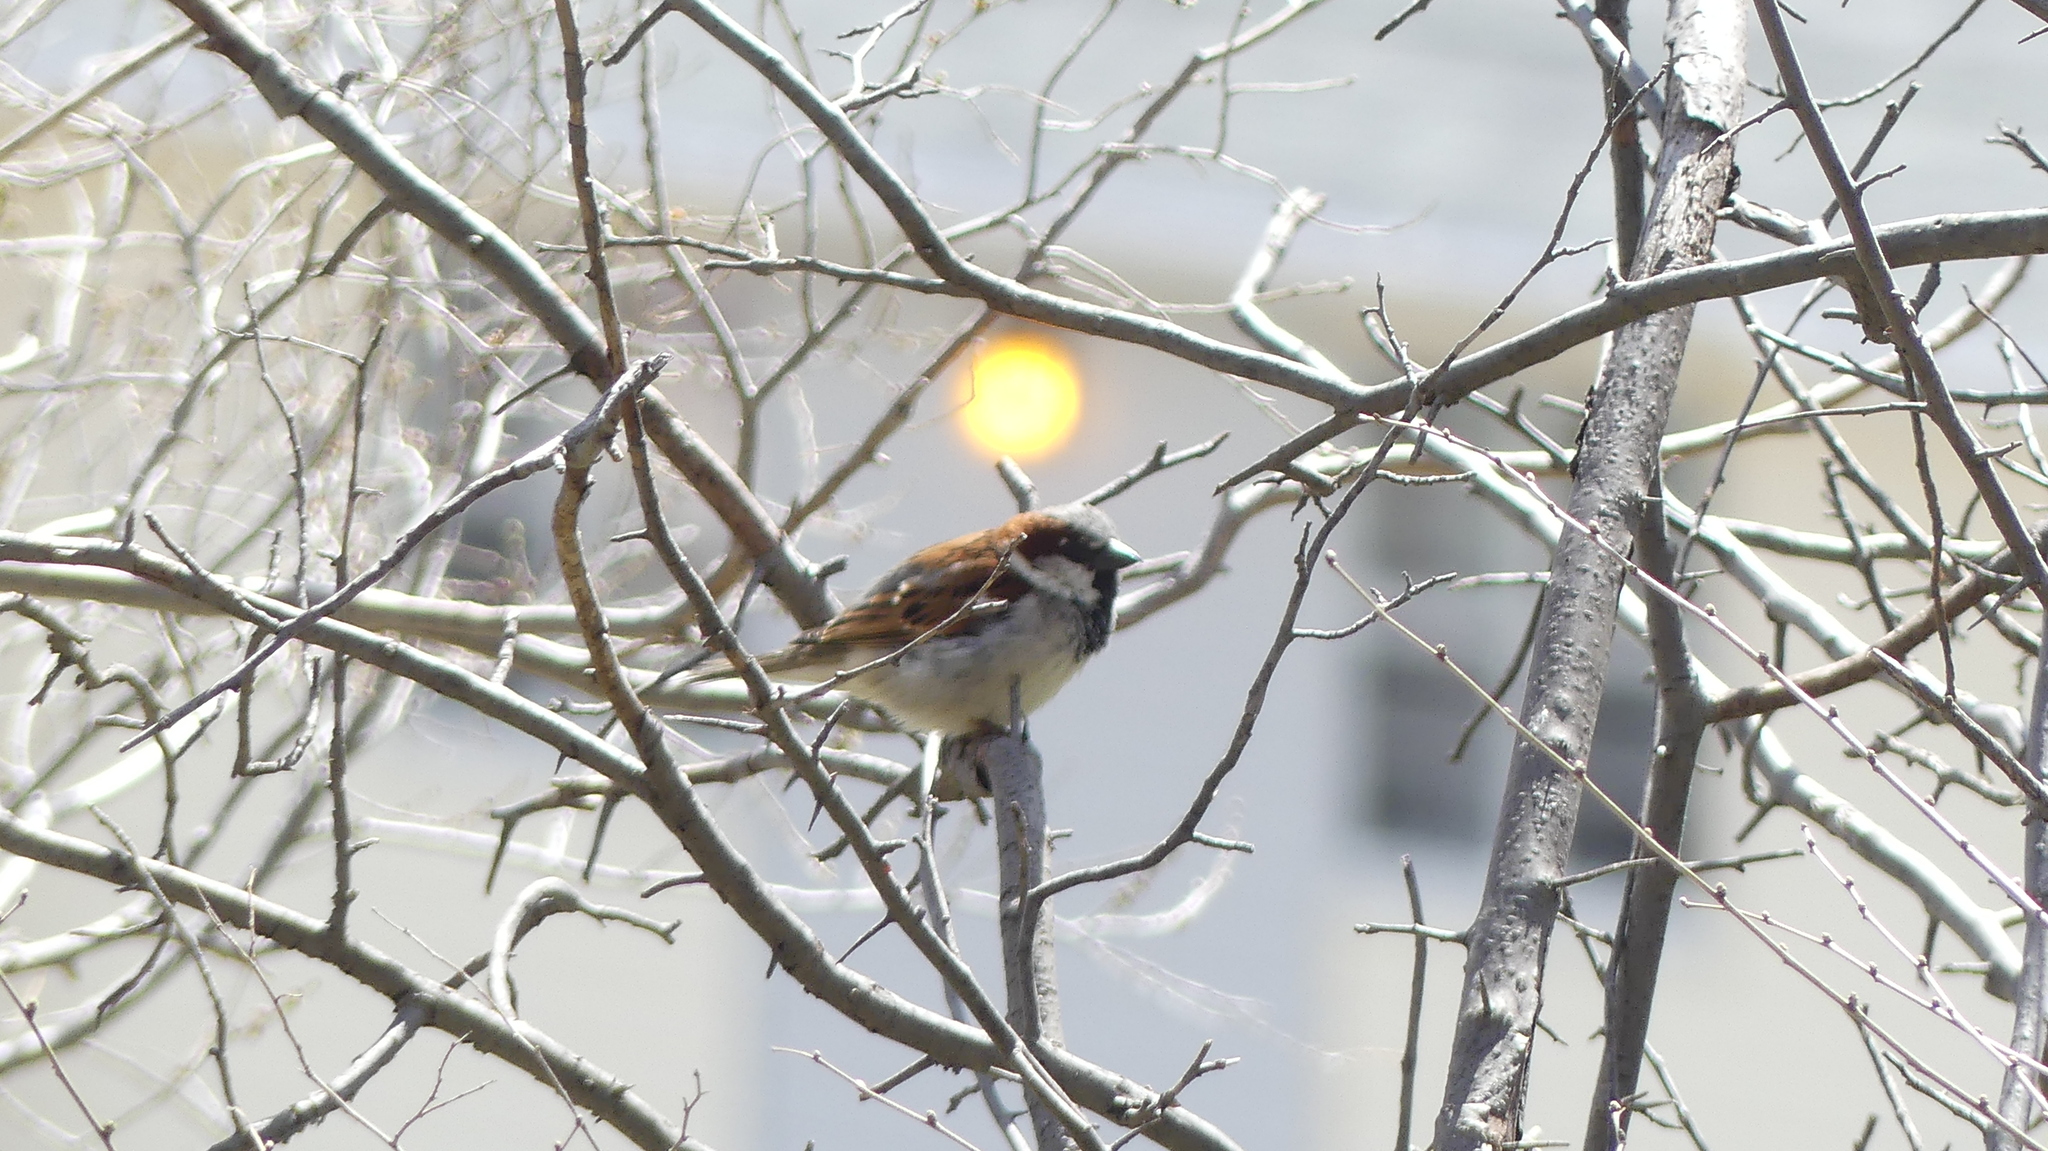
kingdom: Animalia
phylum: Chordata
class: Aves
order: Passeriformes
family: Passeridae
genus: Passer
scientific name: Passer domesticus
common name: House sparrow
